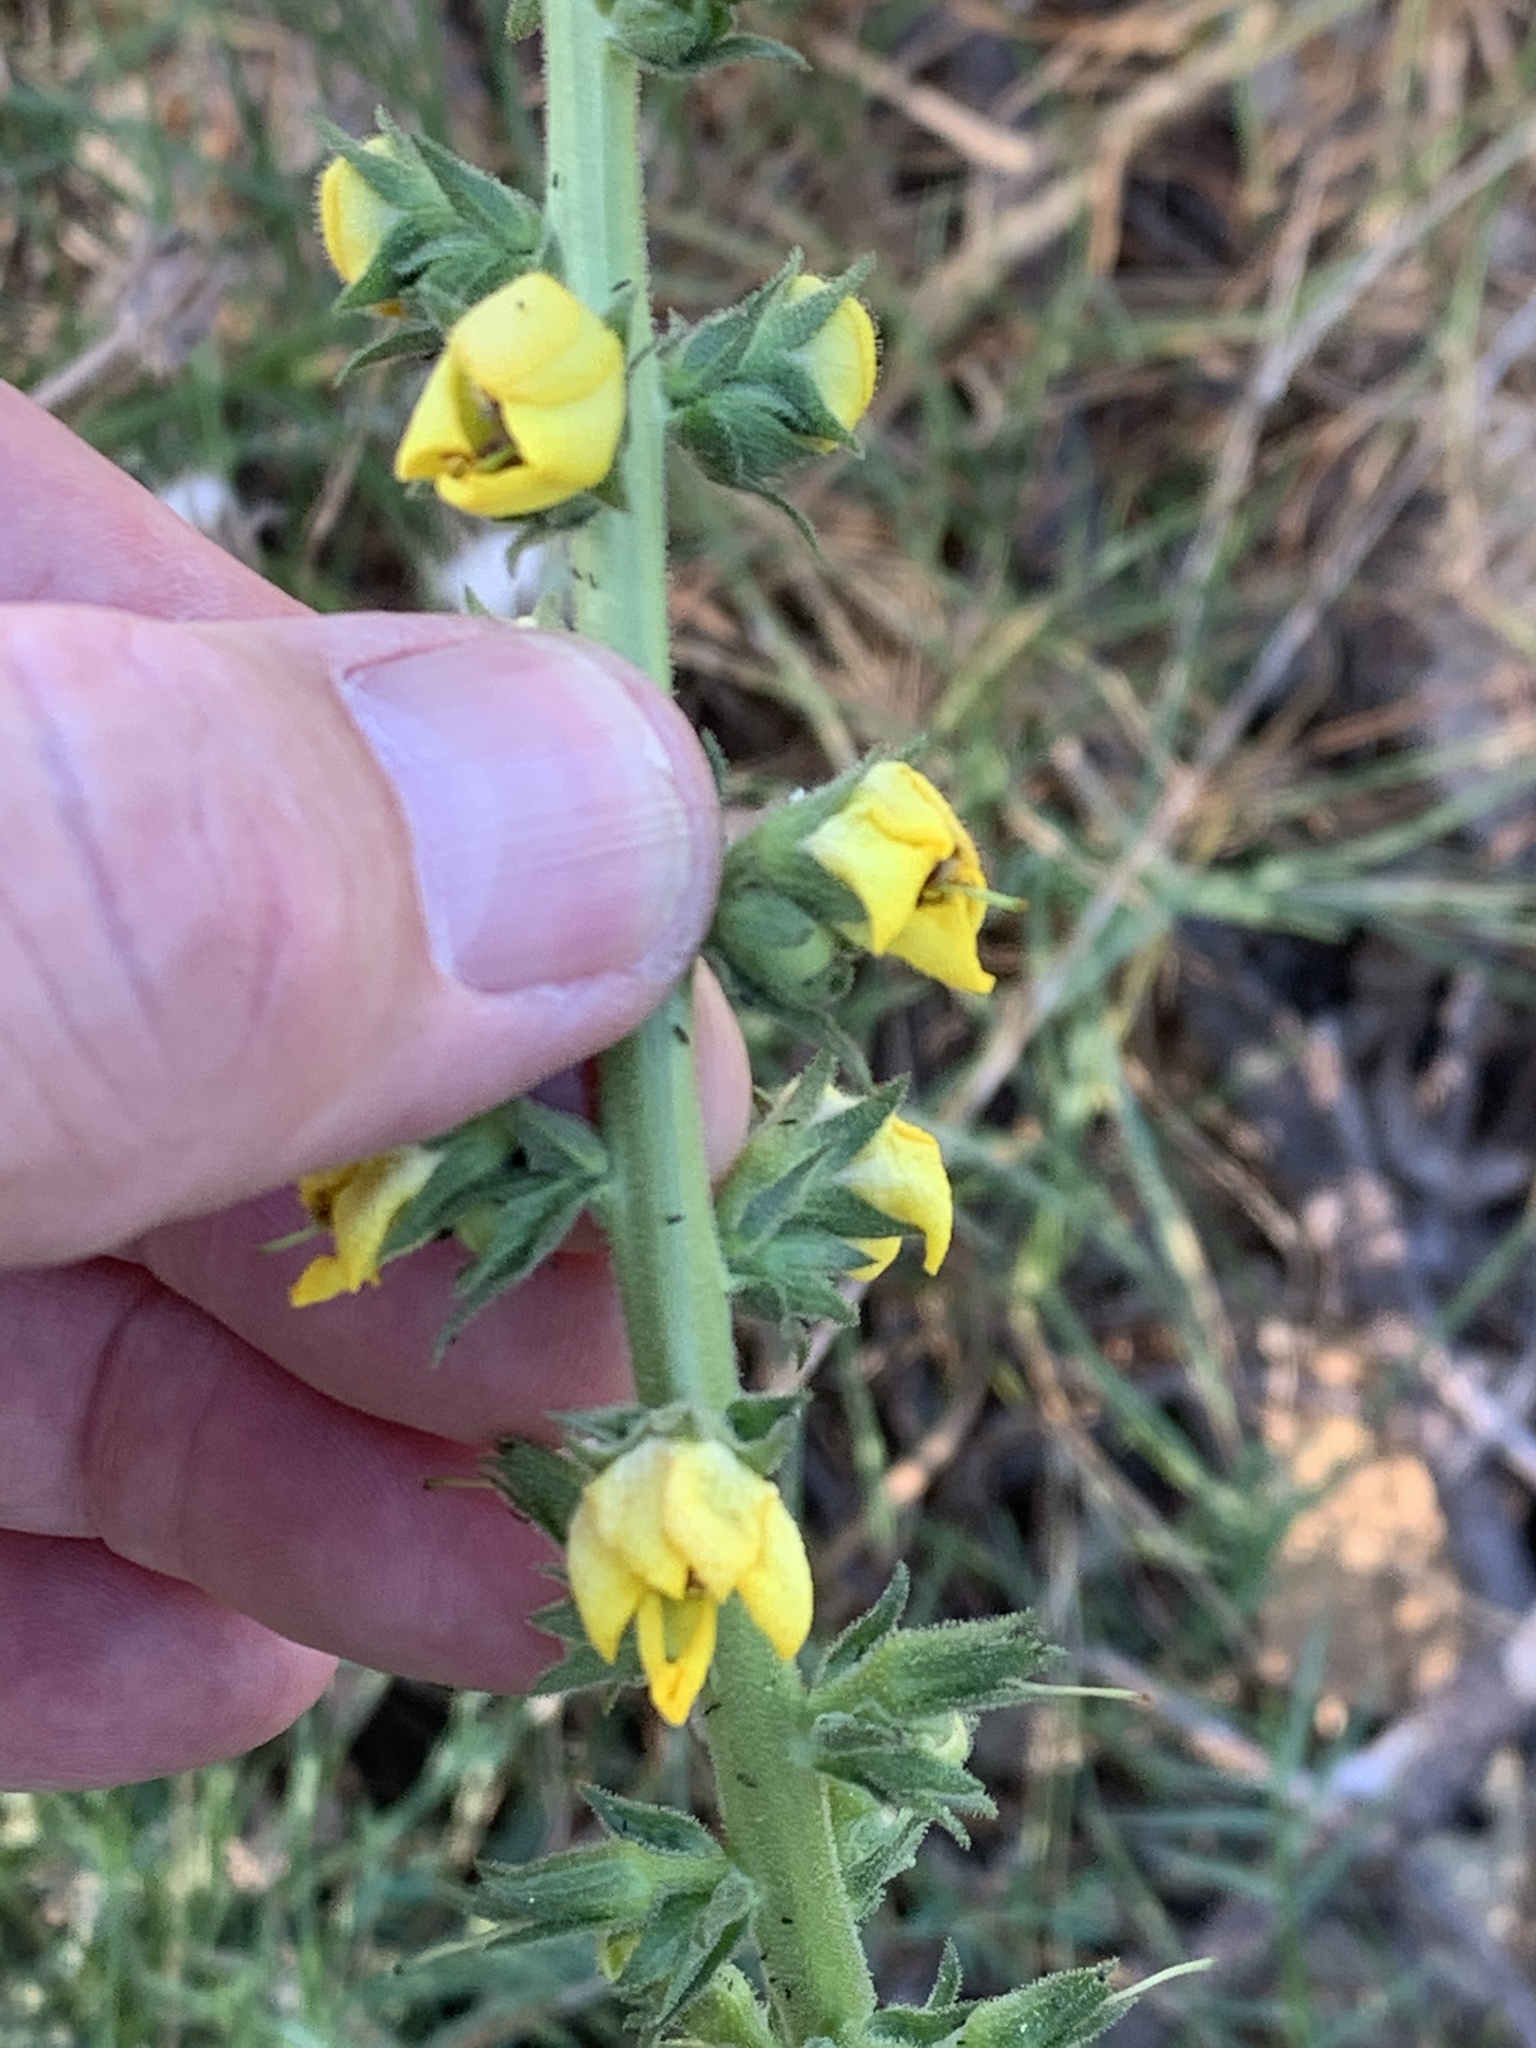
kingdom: Plantae
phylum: Tracheophyta
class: Magnoliopsida
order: Lamiales
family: Scrophulariaceae
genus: Verbascum
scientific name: Verbascum virgatum
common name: Twiggy mullein
